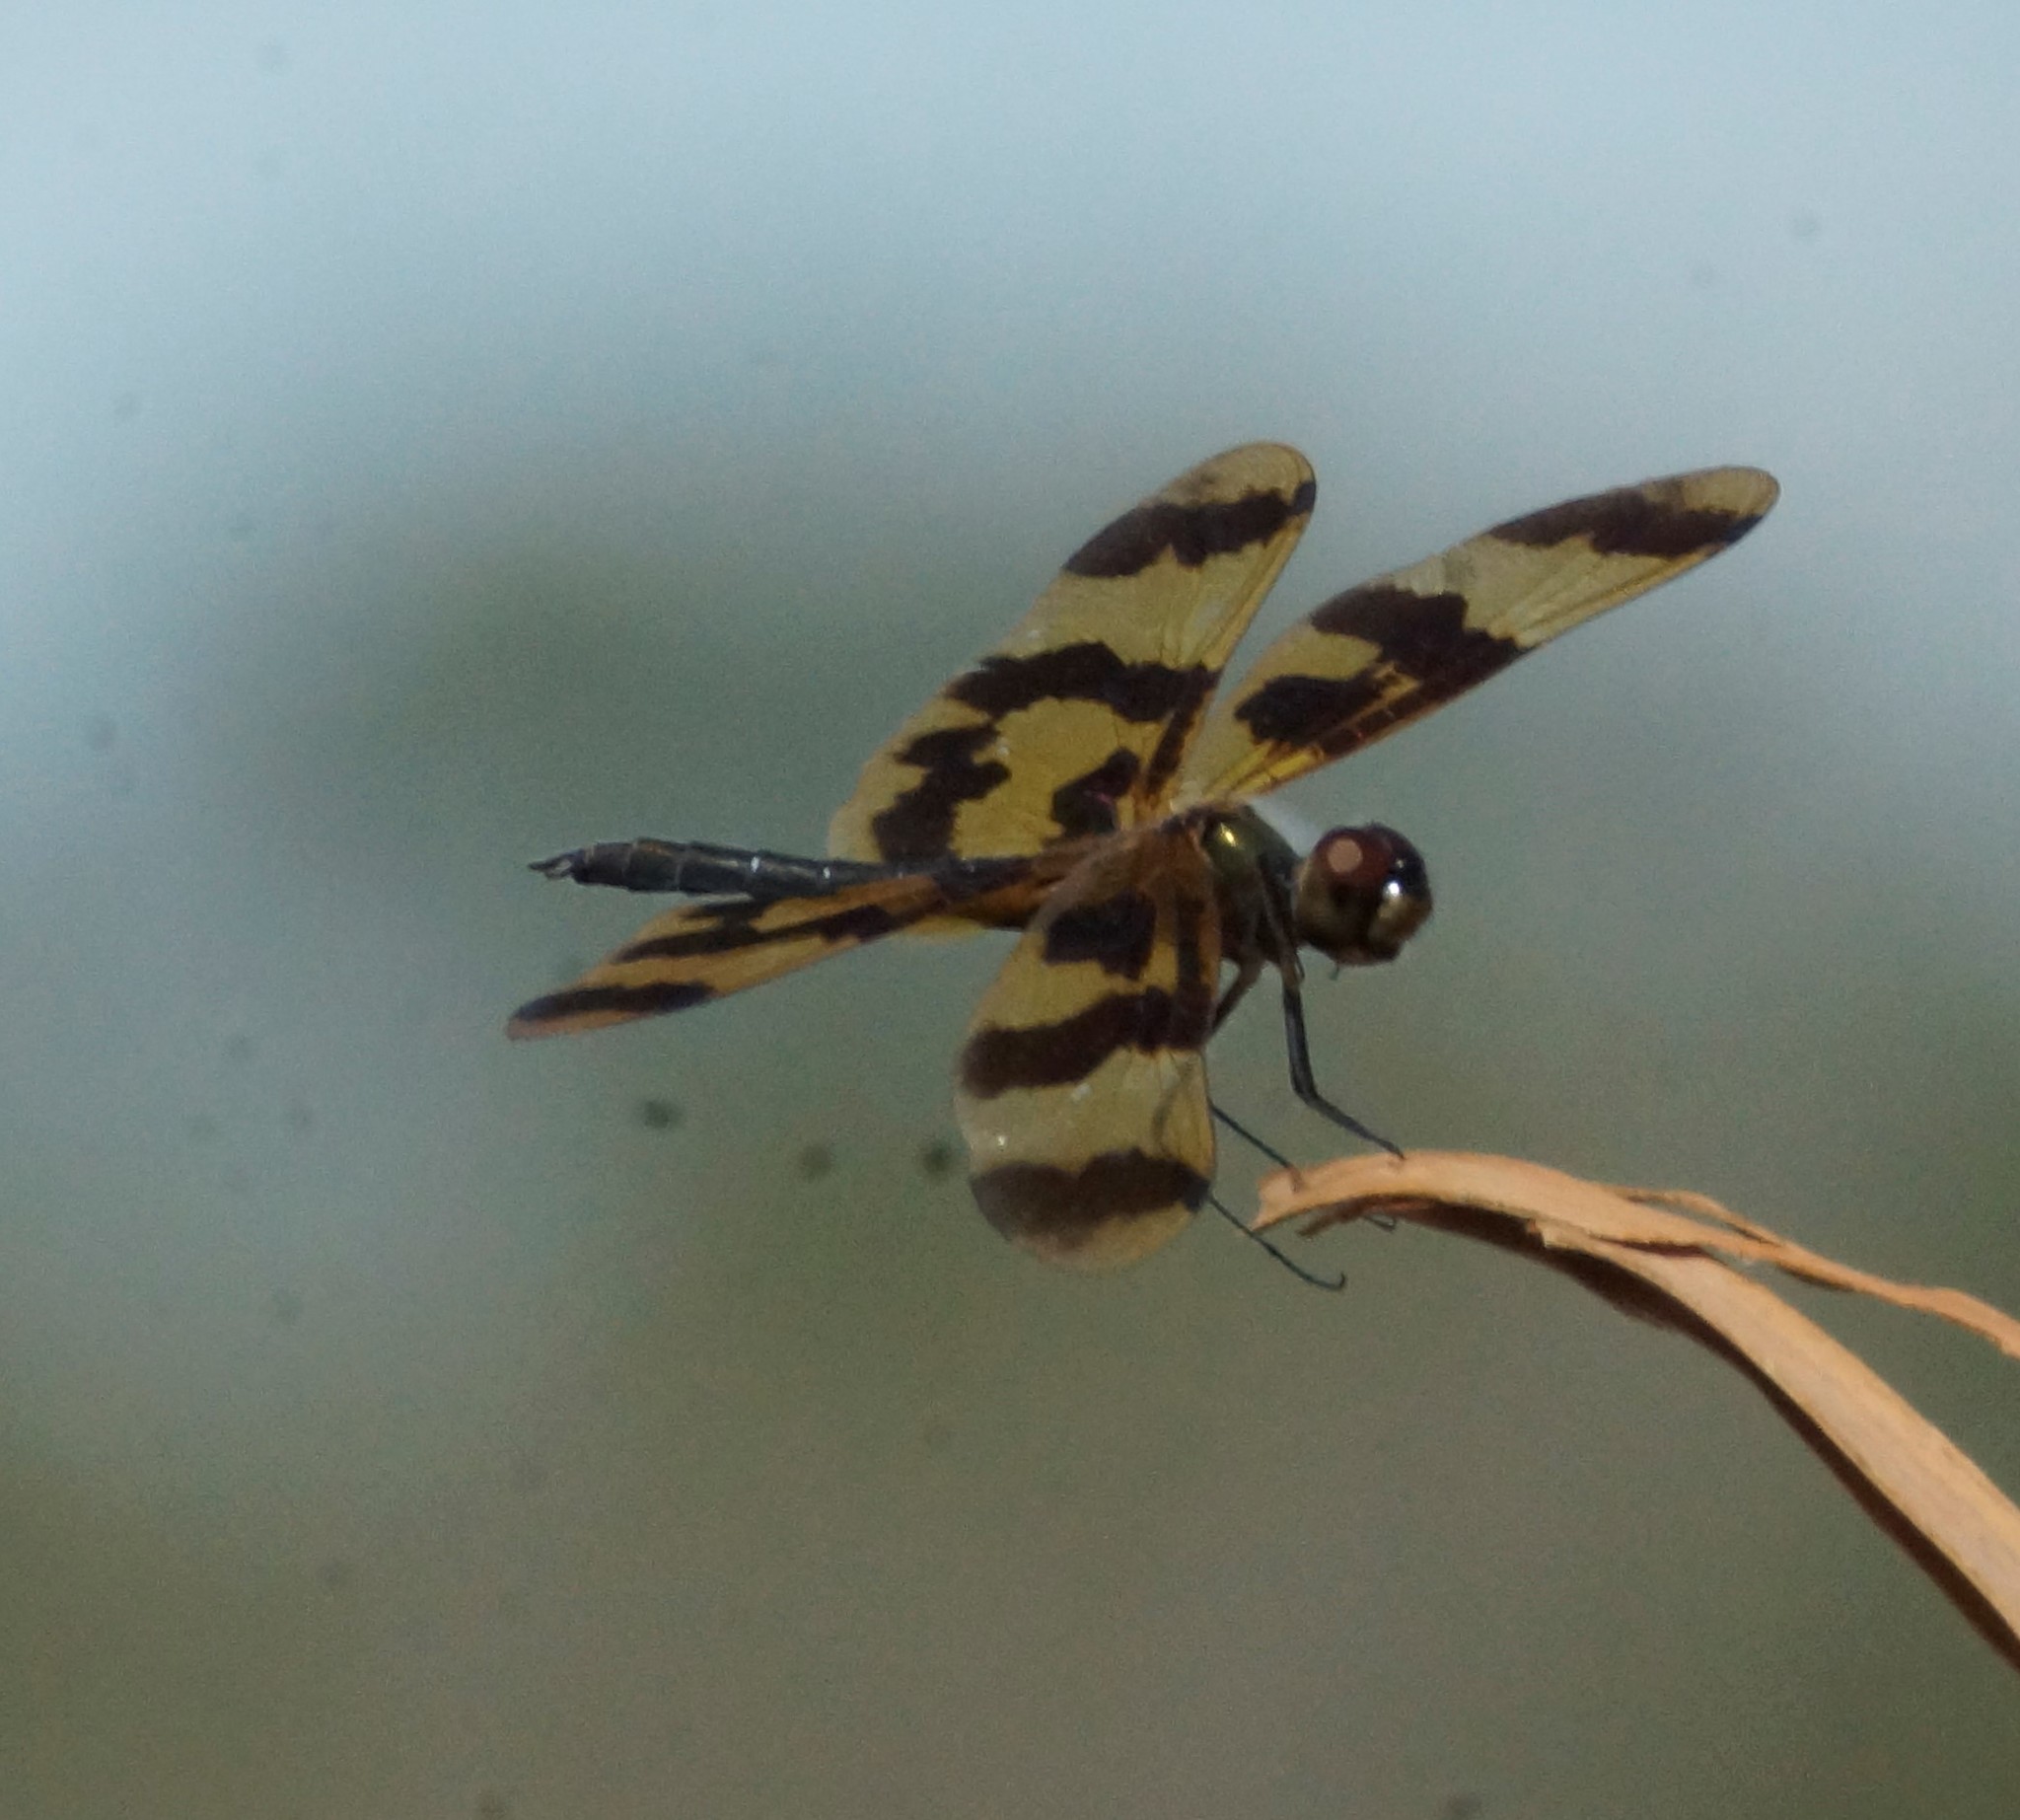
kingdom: Animalia
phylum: Arthropoda
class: Insecta
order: Odonata
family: Libellulidae
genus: Rhyothemis
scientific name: Rhyothemis graphiptera
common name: Graphic flutterer
